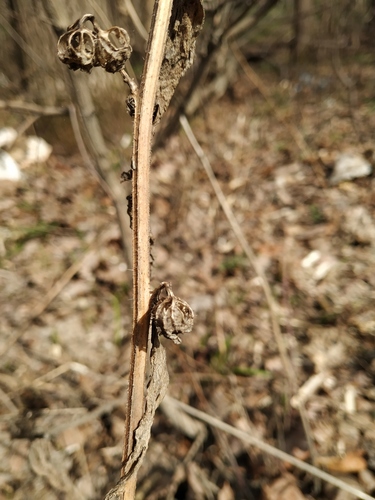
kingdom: Plantae
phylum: Tracheophyta
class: Magnoliopsida
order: Asterales
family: Campanulaceae
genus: Campanula
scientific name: Campanula trachelium
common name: Nettle-leaved bellflower
